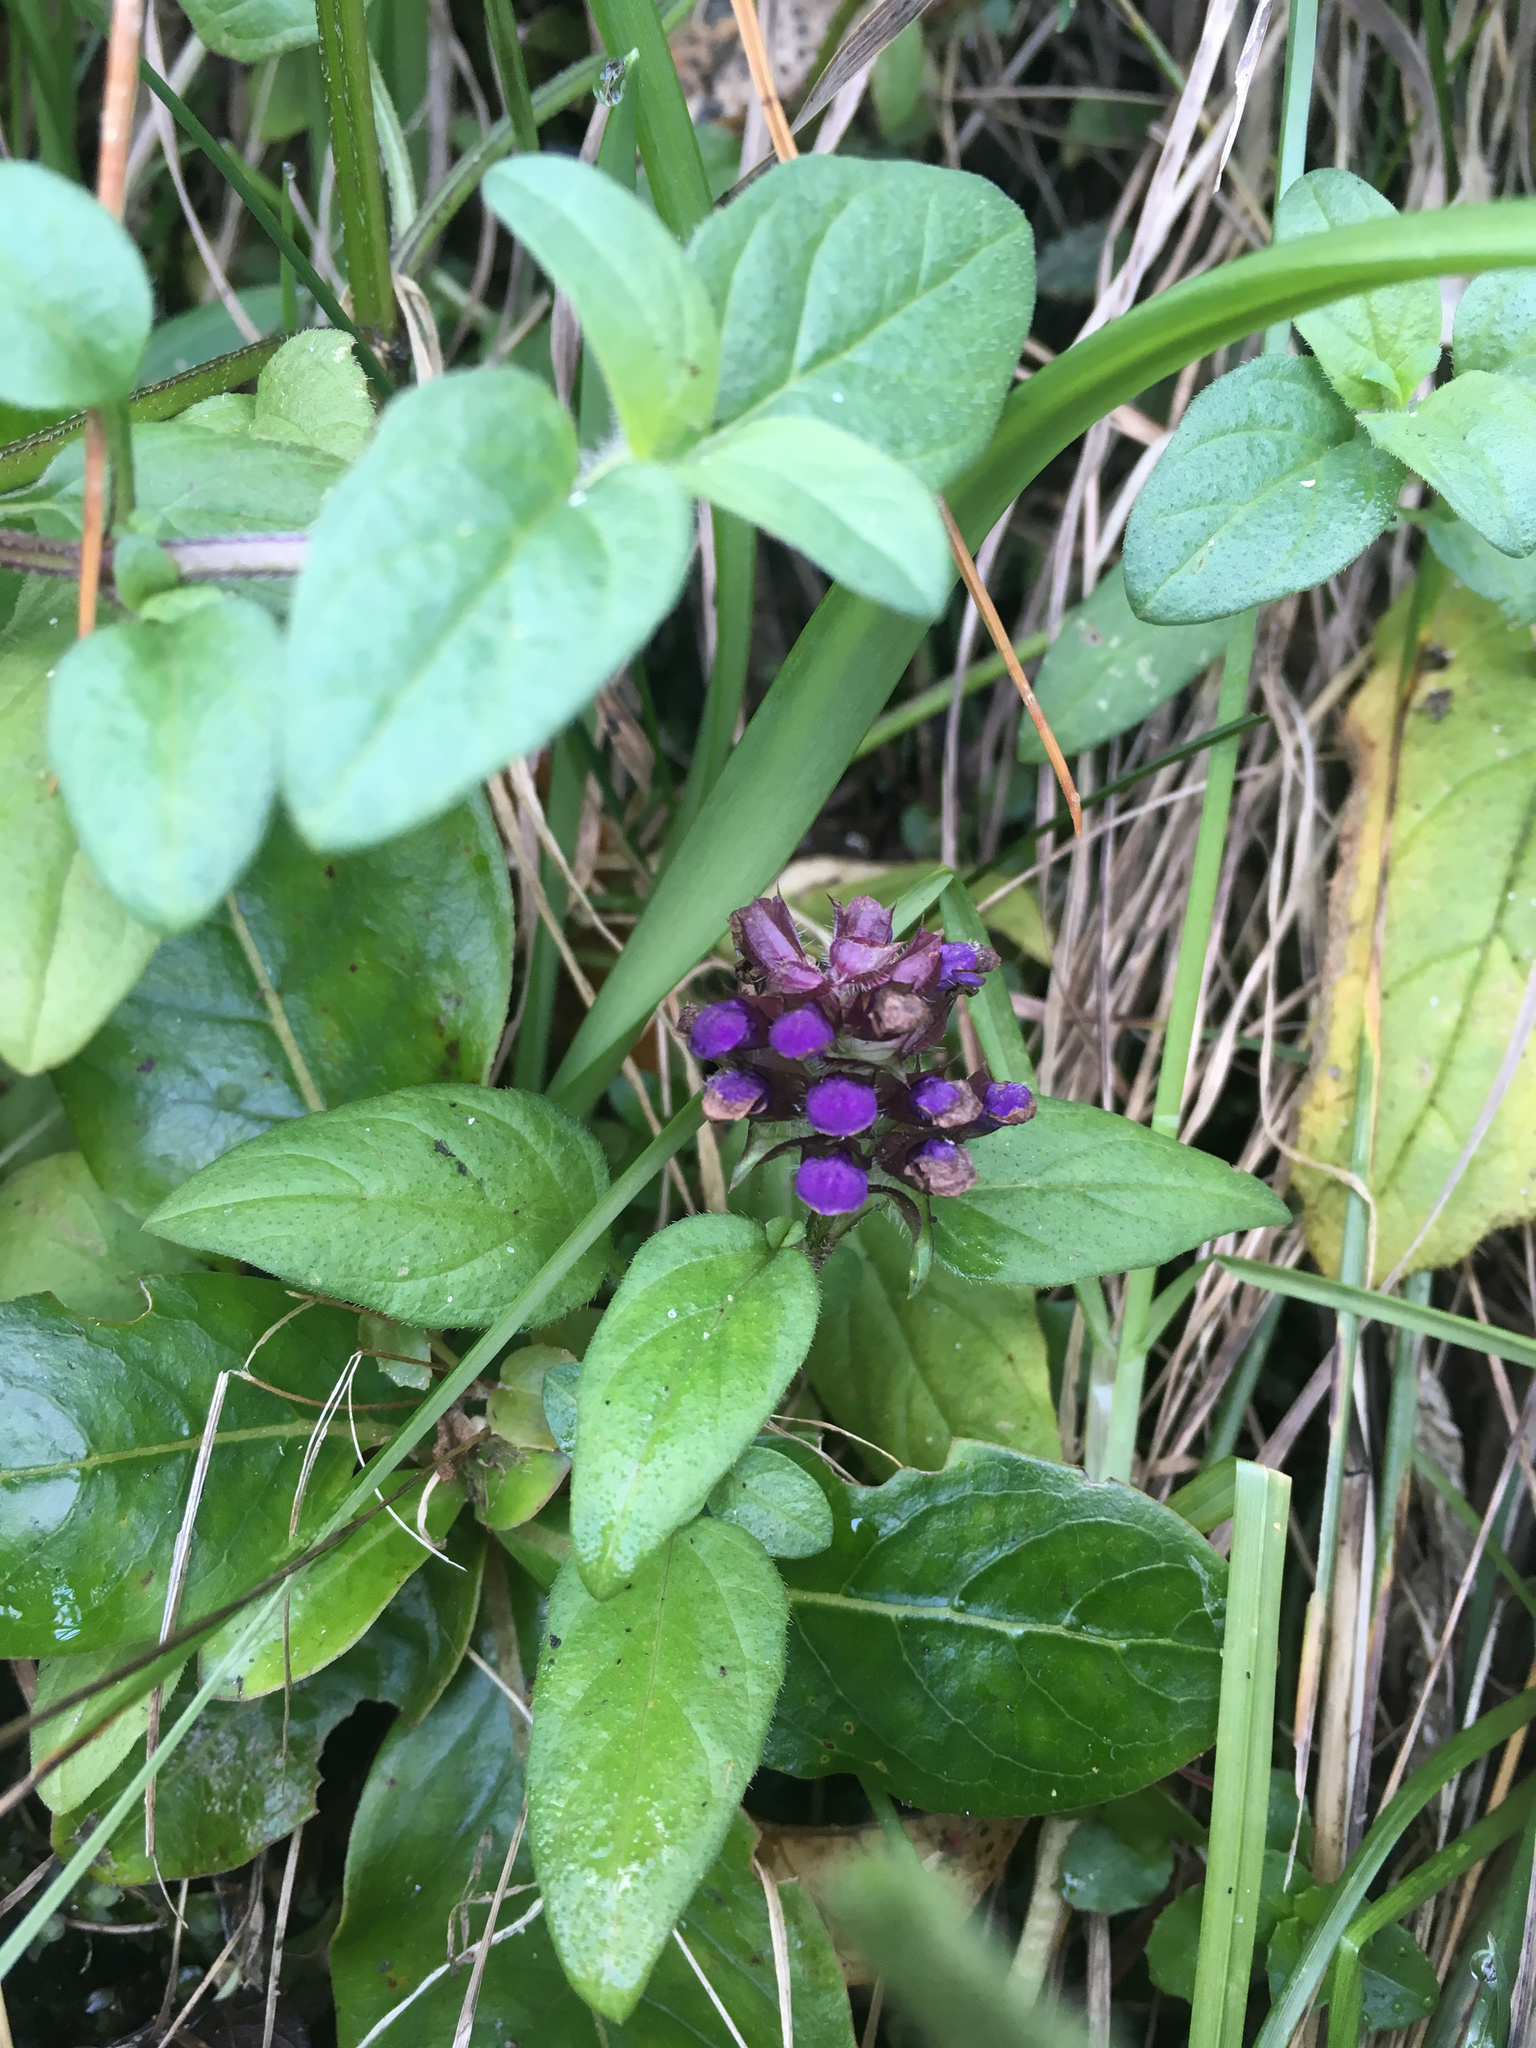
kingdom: Plantae
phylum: Tracheophyta
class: Magnoliopsida
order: Lamiales
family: Lamiaceae
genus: Prunella
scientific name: Prunella vulgaris
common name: Heal-all
